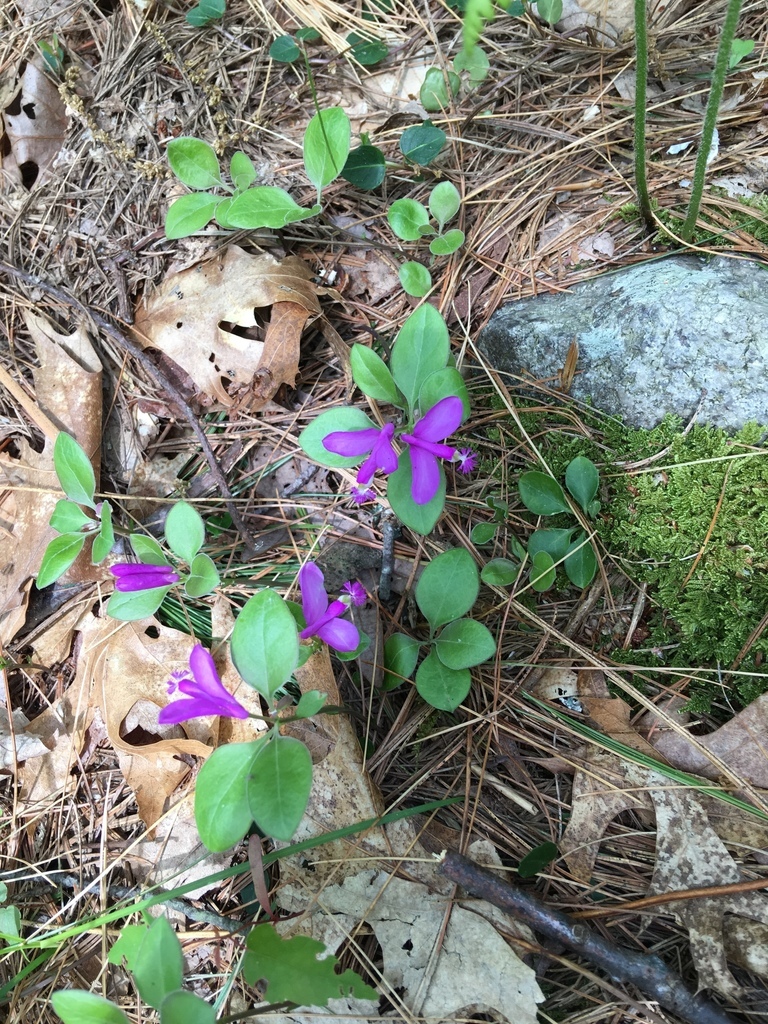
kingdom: Plantae
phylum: Tracheophyta
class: Magnoliopsida
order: Fabales
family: Polygalaceae
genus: Polygaloides
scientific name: Polygaloides paucifolia
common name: Bird-on-the-wing
